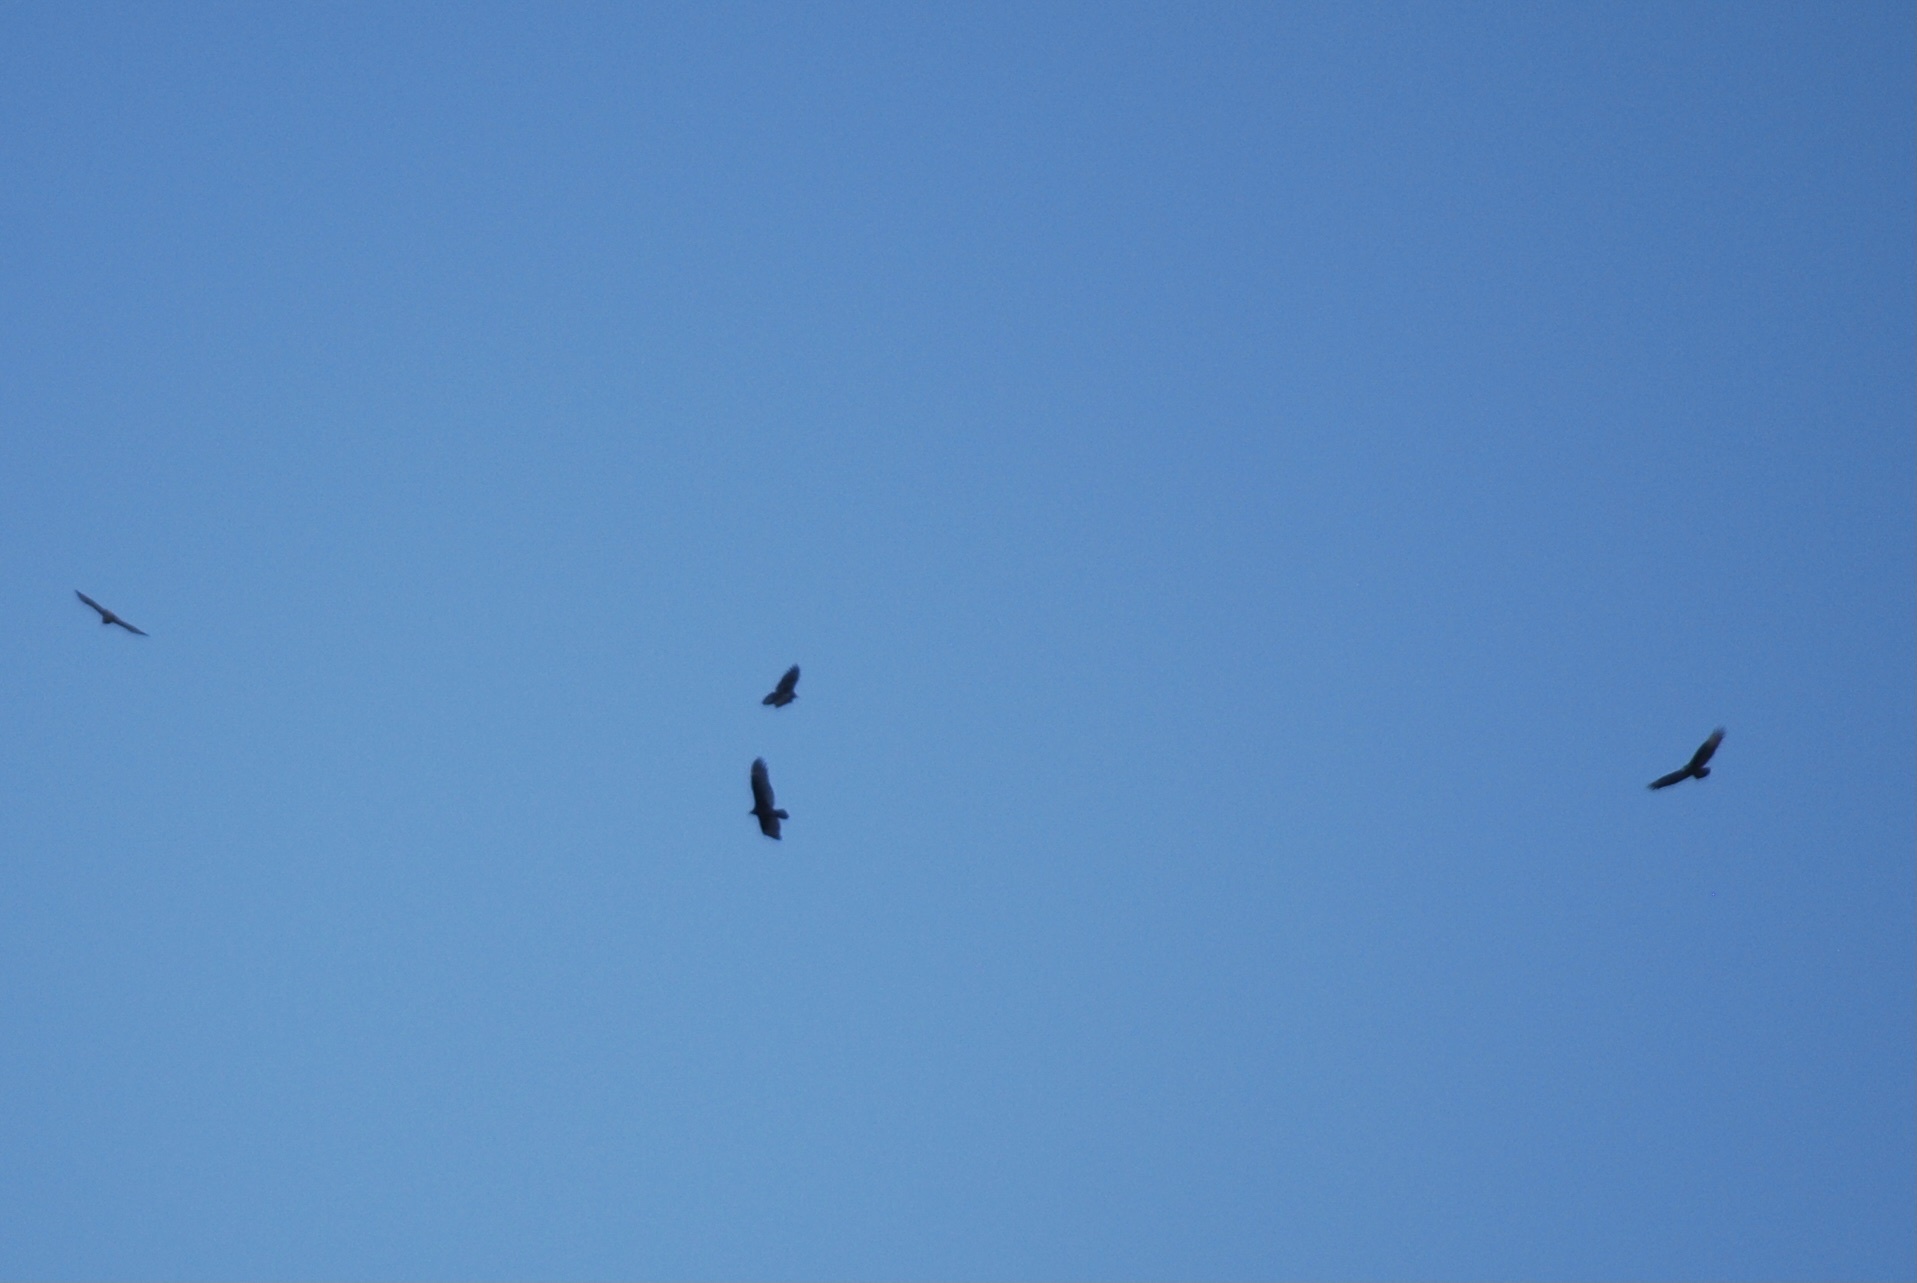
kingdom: Animalia
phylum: Chordata
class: Aves
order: Accipitriformes
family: Cathartidae
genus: Cathartes
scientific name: Cathartes aura
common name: Turkey vulture
